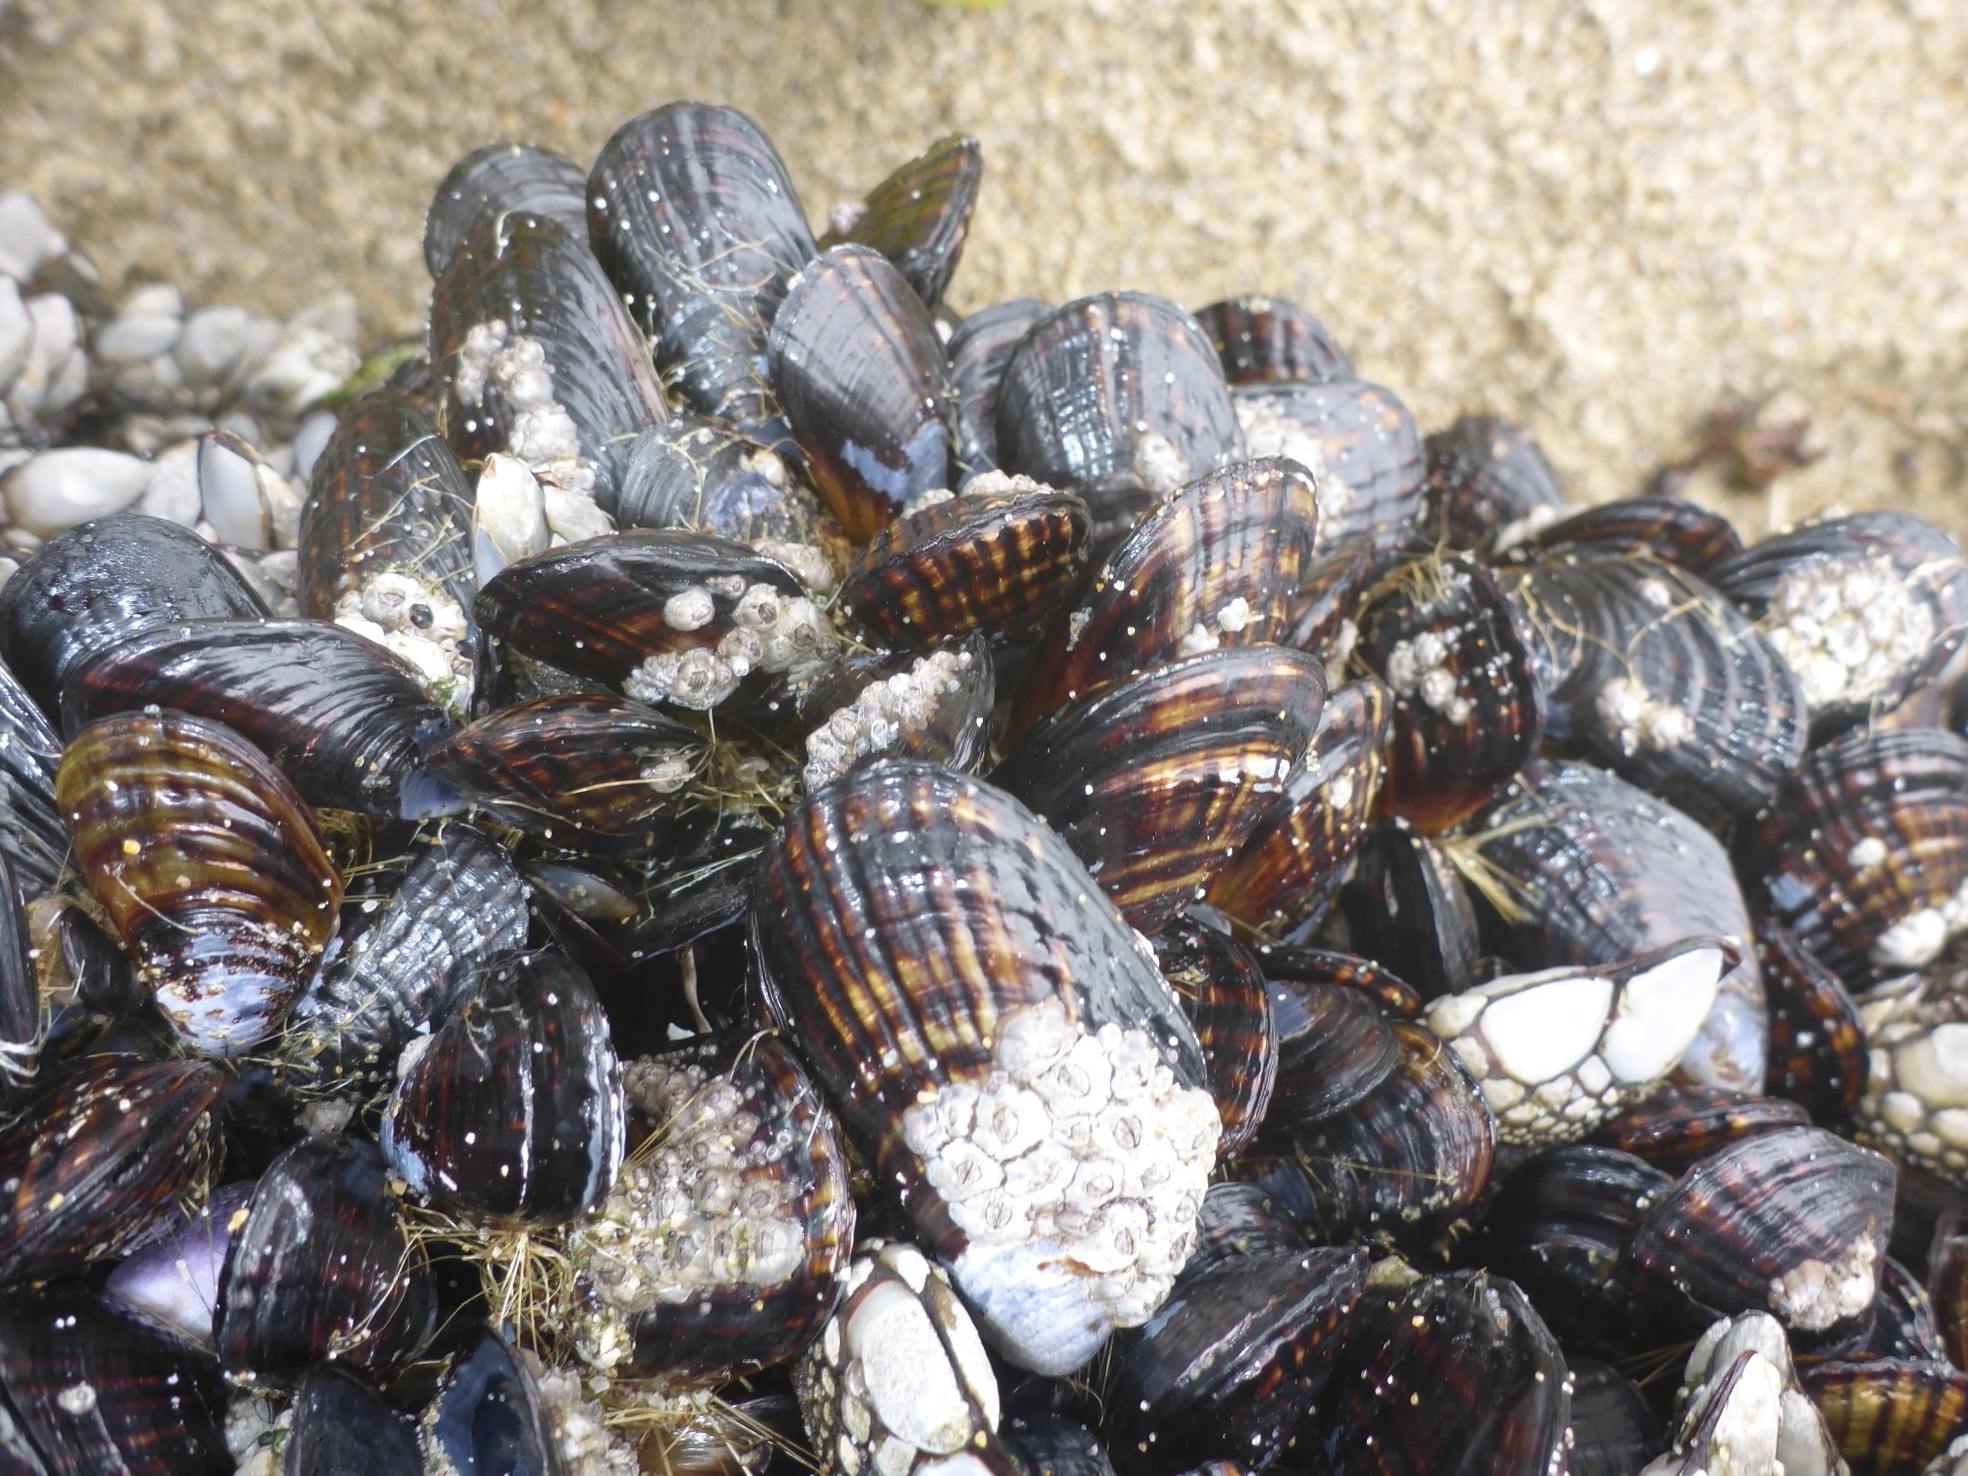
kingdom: Animalia
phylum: Mollusca
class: Bivalvia
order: Mytilida
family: Mytilidae
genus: Mytilus
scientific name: Mytilus californianus
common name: California mussel
